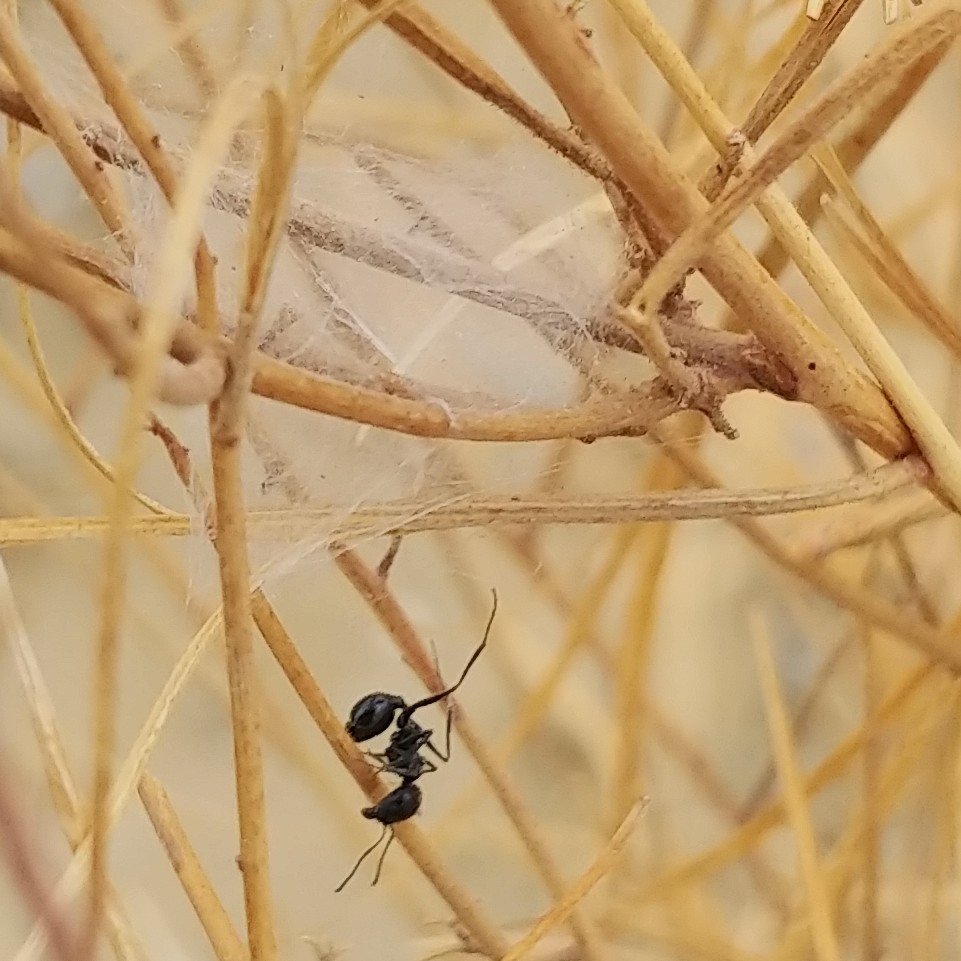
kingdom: Animalia
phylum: Arthropoda
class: Insecta
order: Hymenoptera
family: Formicidae
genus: Messor
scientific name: Messor pergandei
